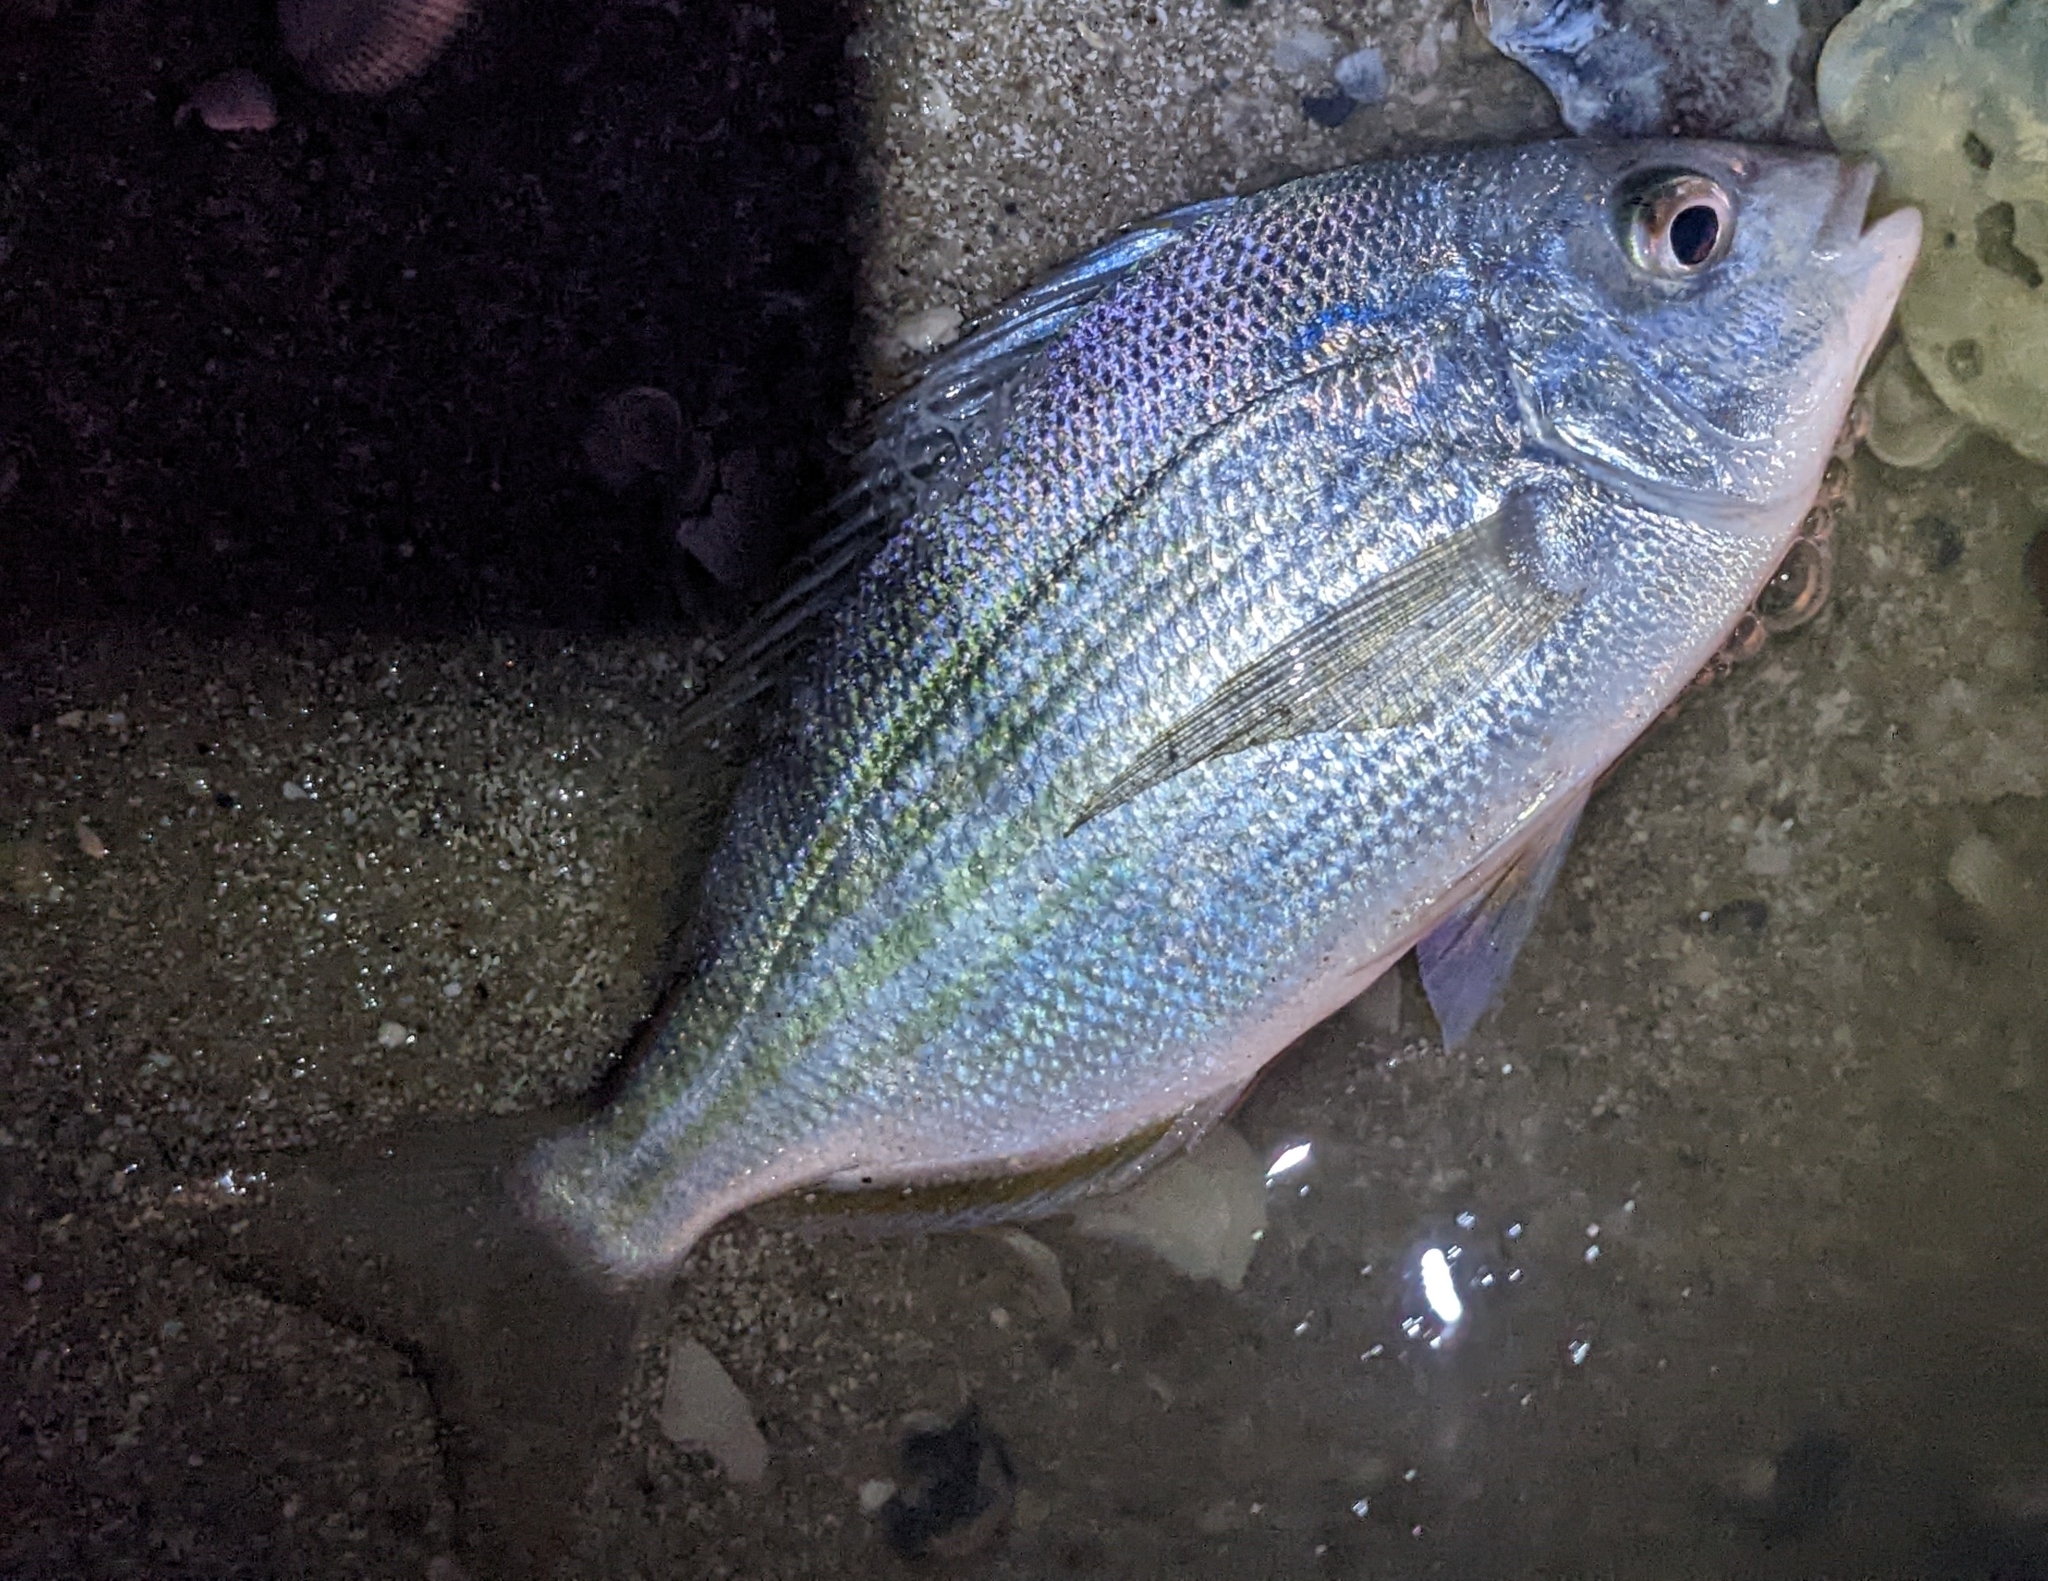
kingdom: Animalia
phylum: Chordata
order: Perciformes
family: Sparidae
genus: Lagodon
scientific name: Lagodon rhomboides
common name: Pinfish
